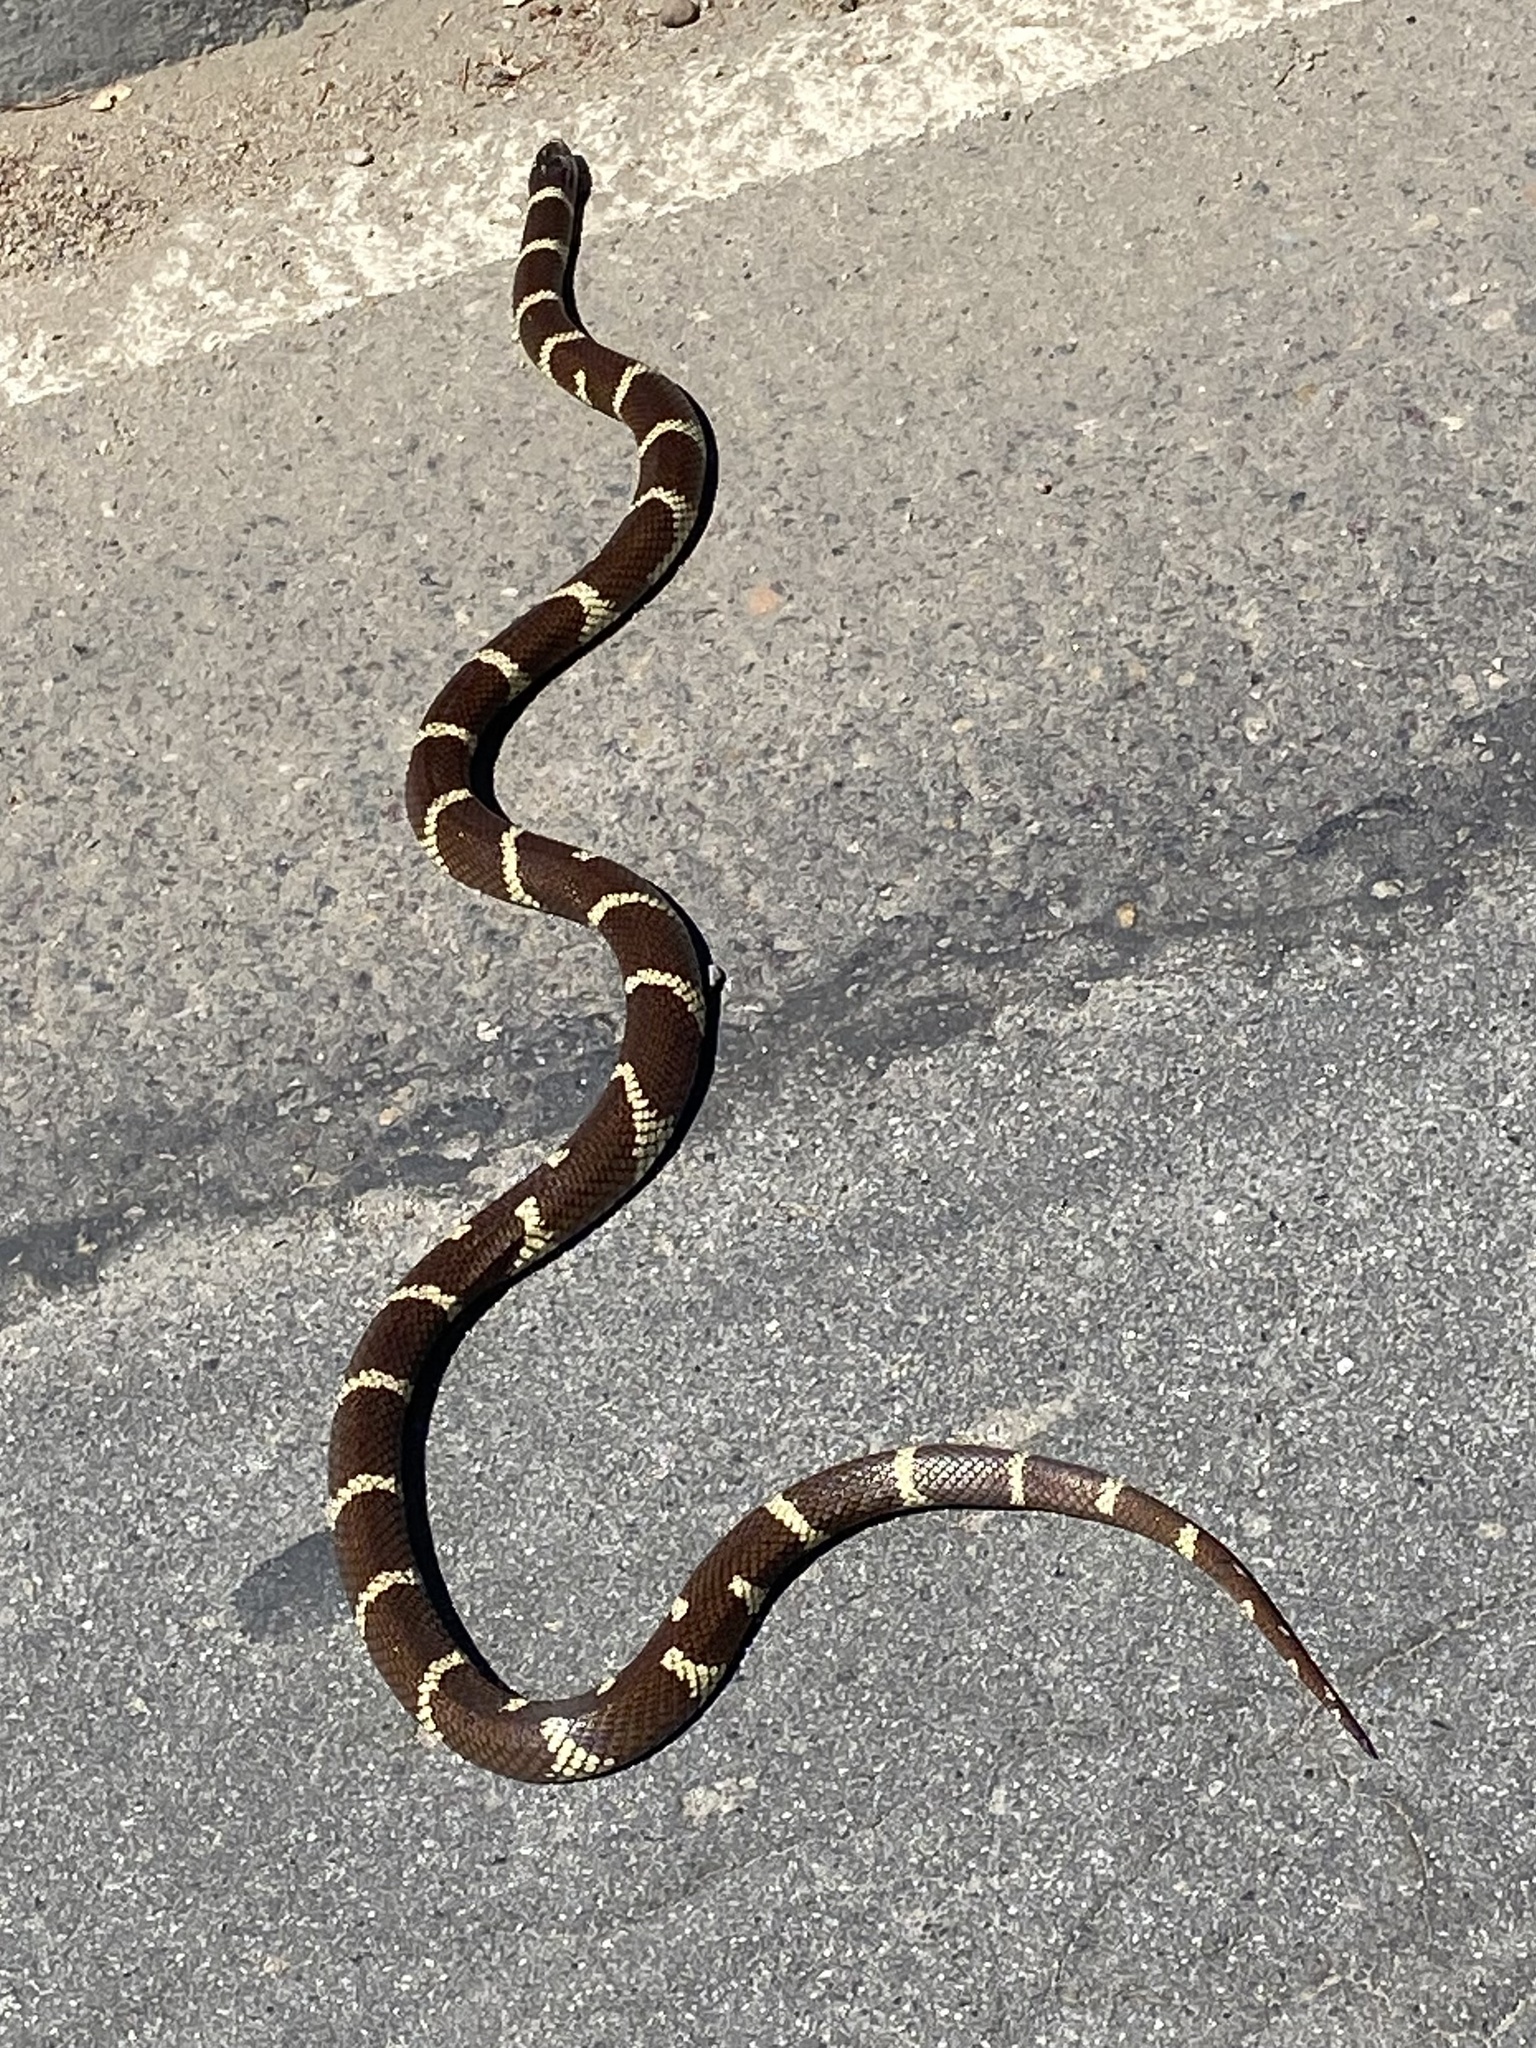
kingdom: Animalia
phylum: Chordata
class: Squamata
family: Colubridae
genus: Lampropeltis
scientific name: Lampropeltis californiae
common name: California kingsnake
